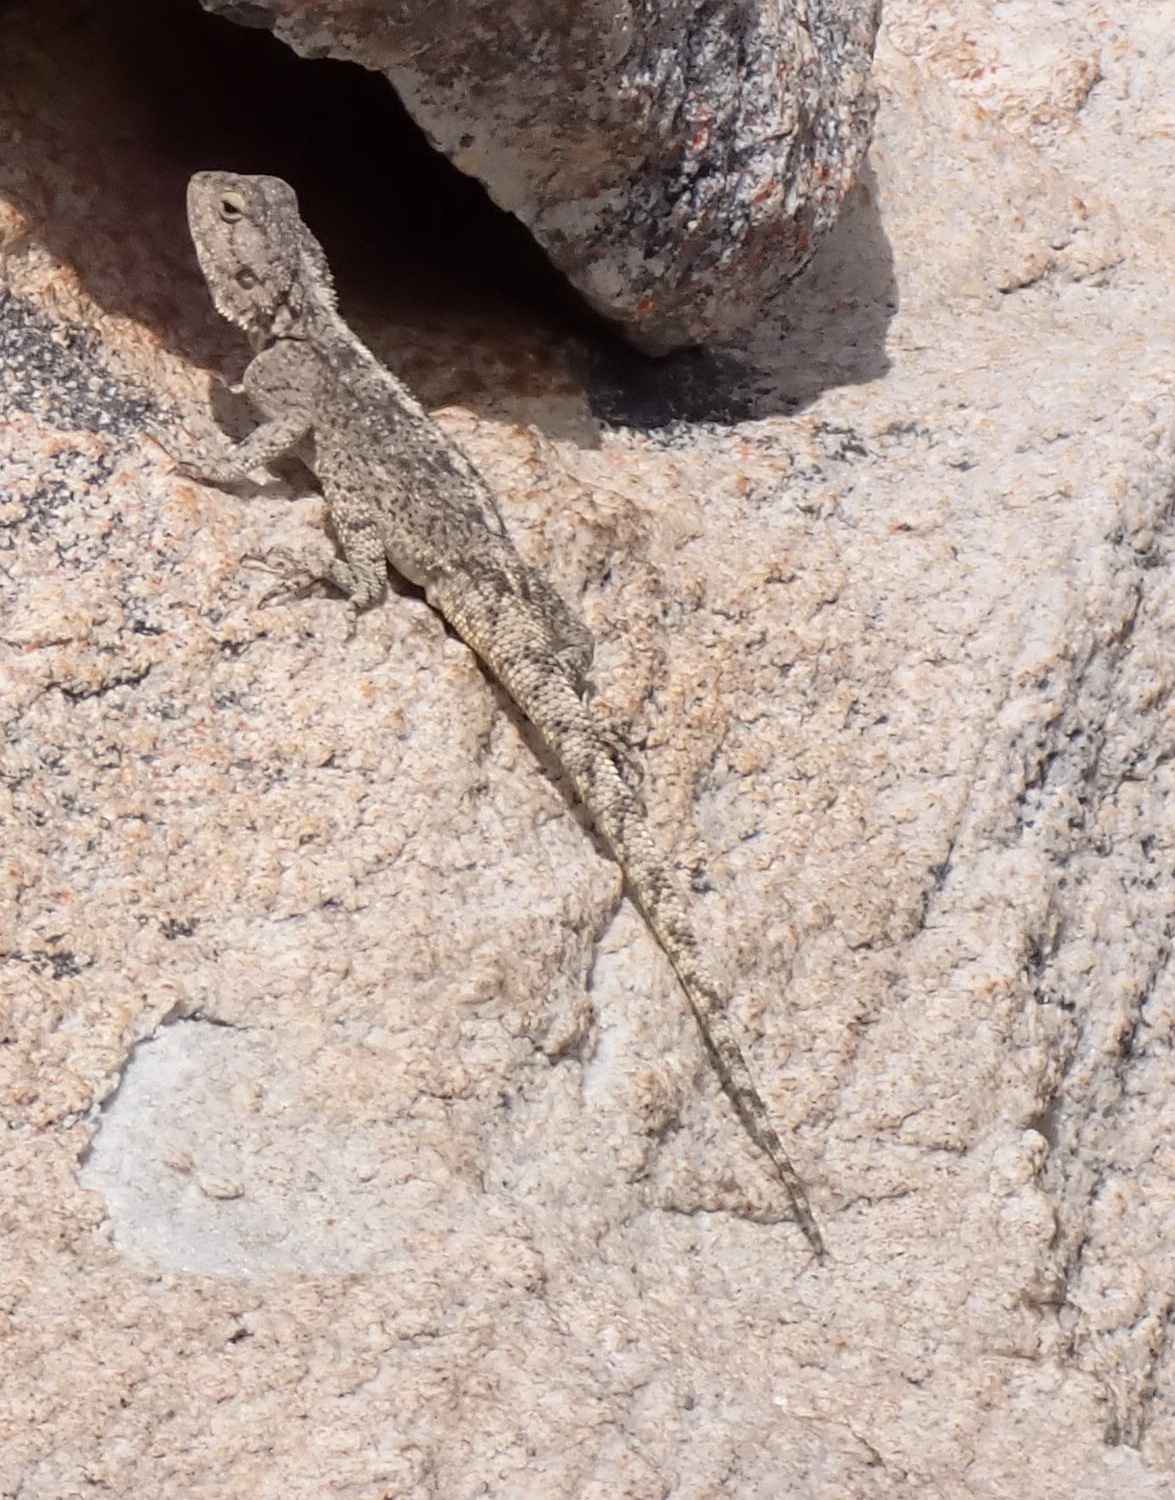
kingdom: Animalia
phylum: Chordata
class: Squamata
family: Agamidae
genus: Agama
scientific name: Agama atra
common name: Southern african rock agama
